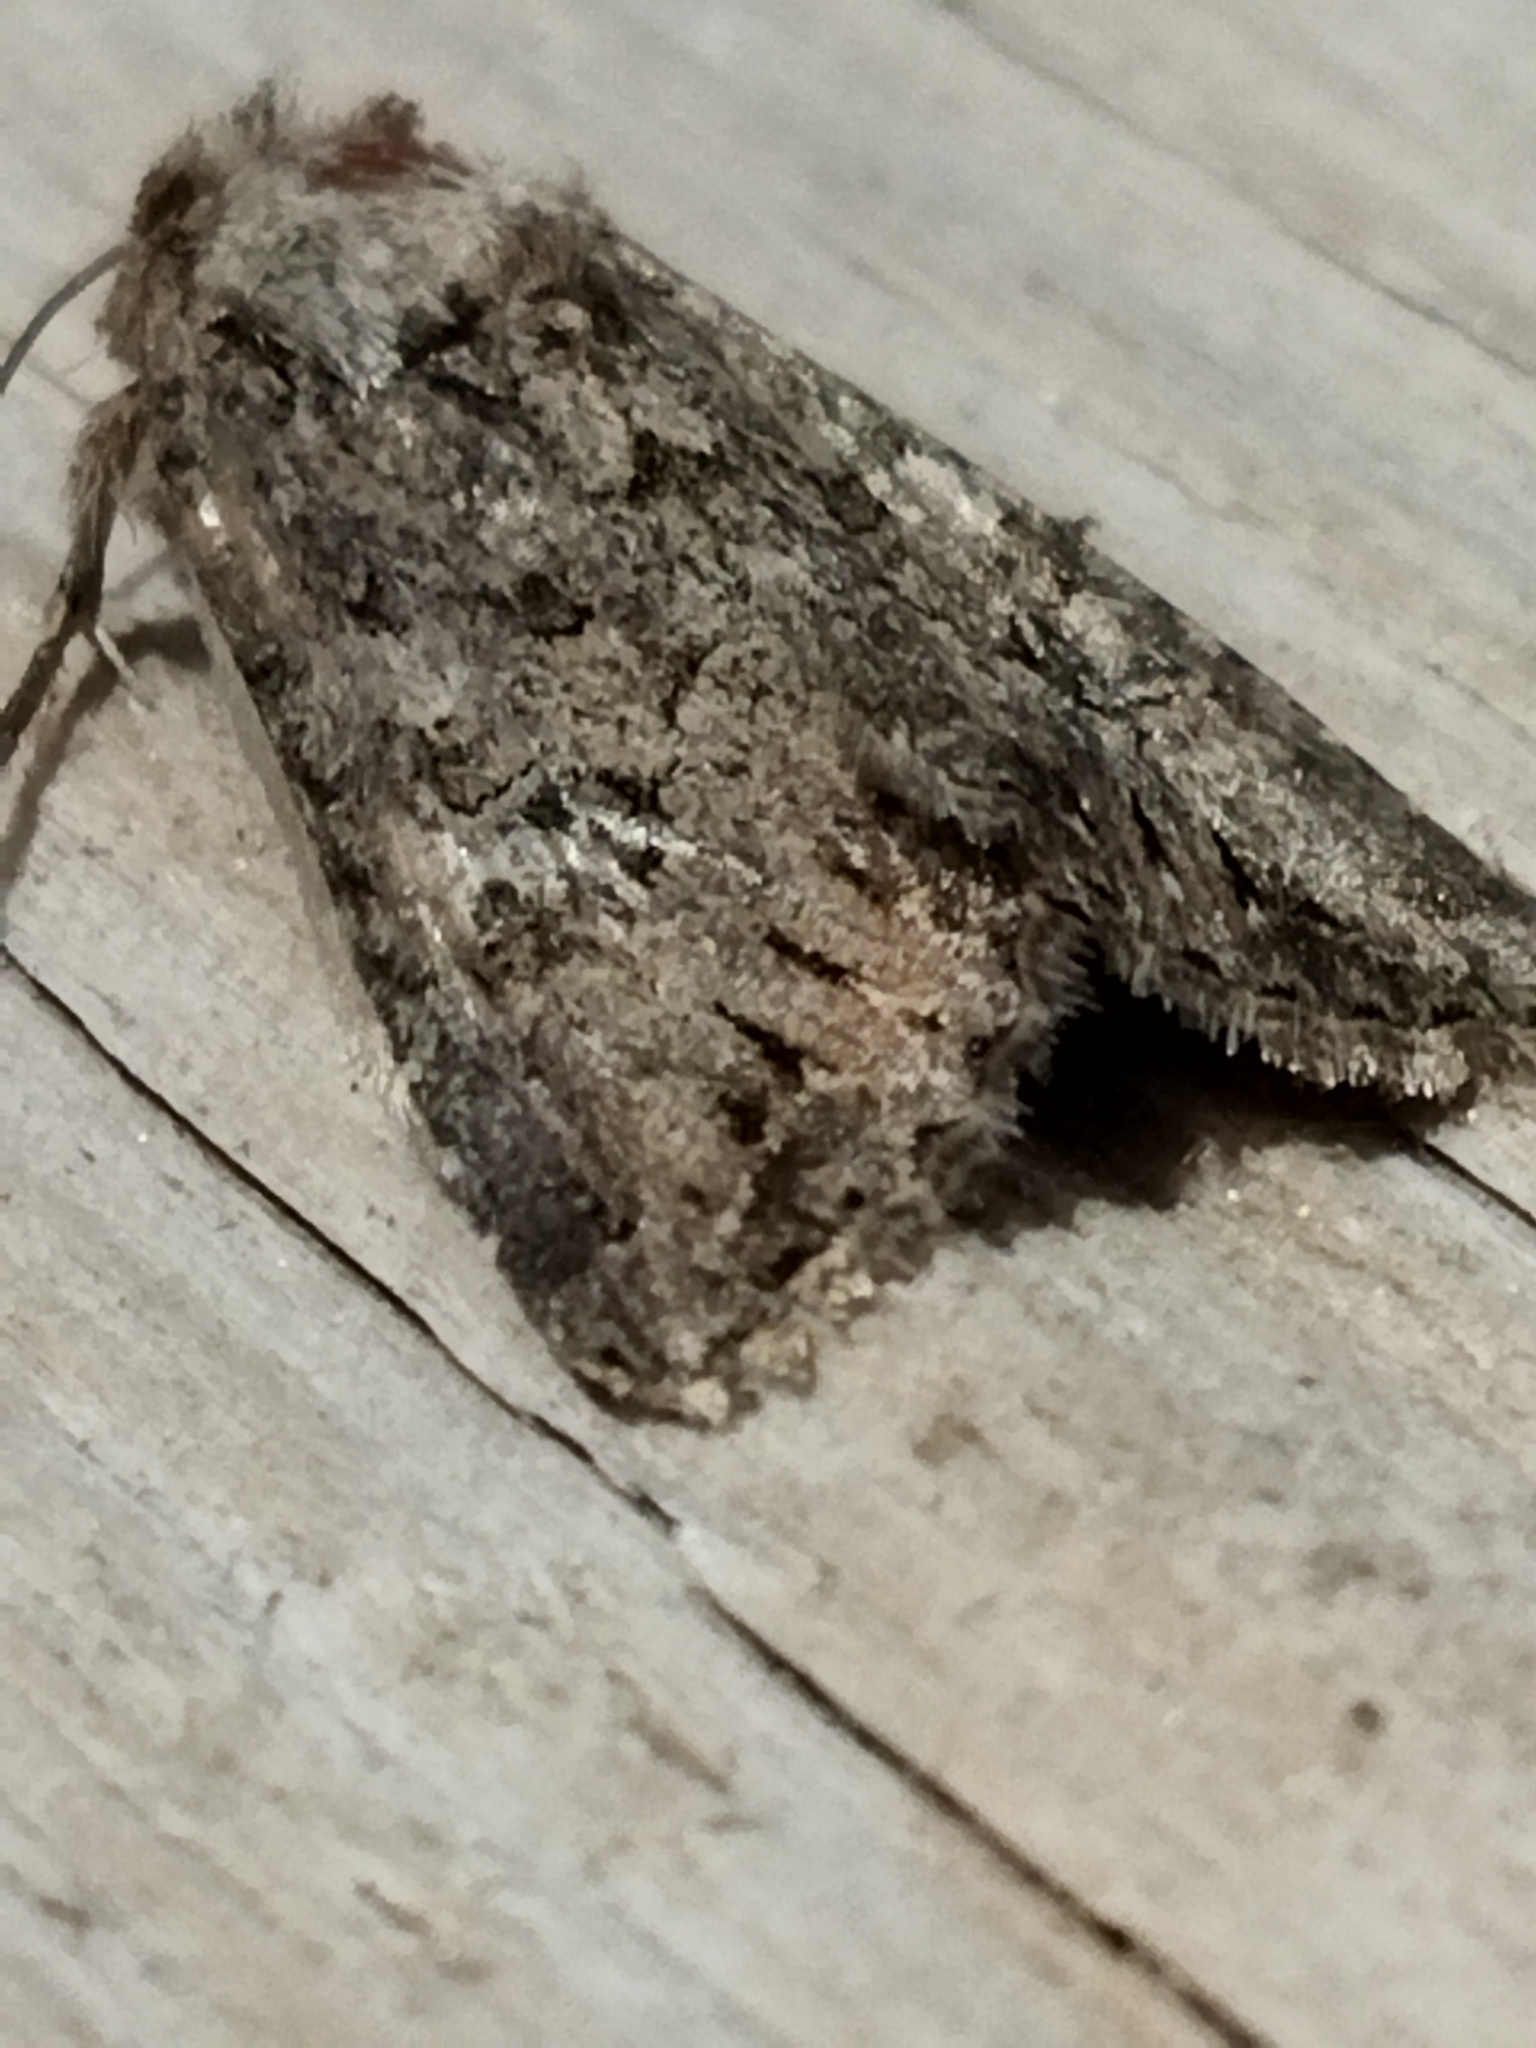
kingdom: Animalia
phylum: Arthropoda
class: Insecta
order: Lepidoptera
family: Noctuidae
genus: Anarta
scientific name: Anarta trifolii
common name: Clover cutworm moth
